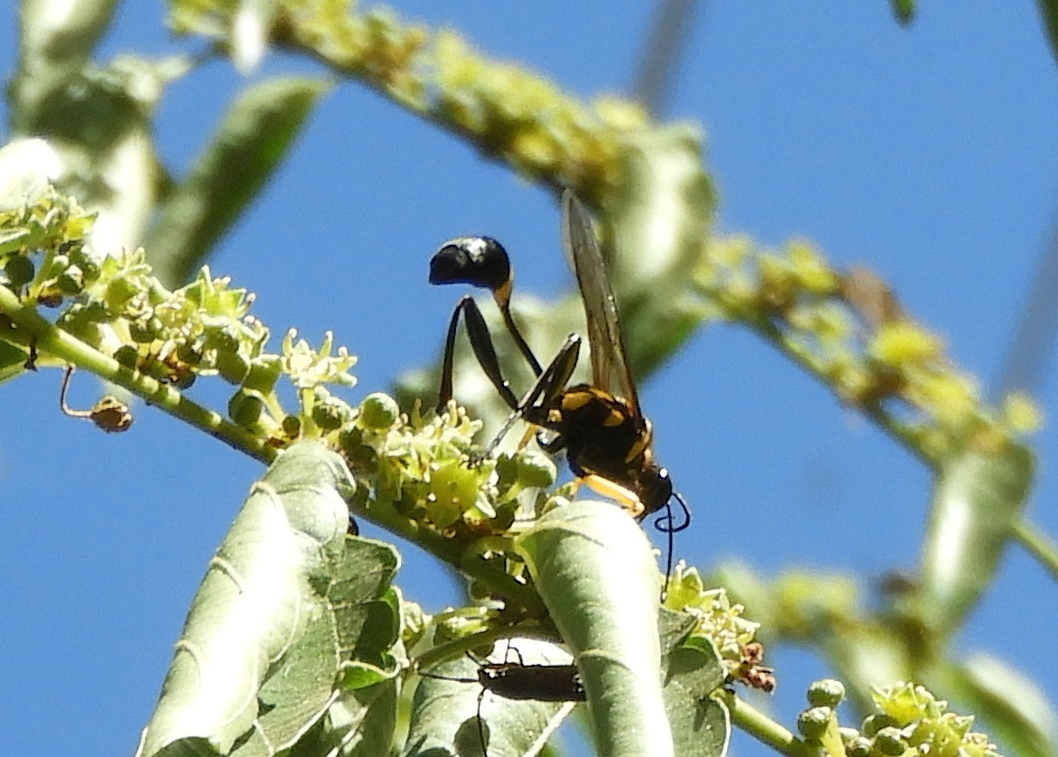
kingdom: Animalia
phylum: Arthropoda
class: Insecta
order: Hymenoptera
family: Sphecidae
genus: Sceliphron
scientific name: Sceliphron
